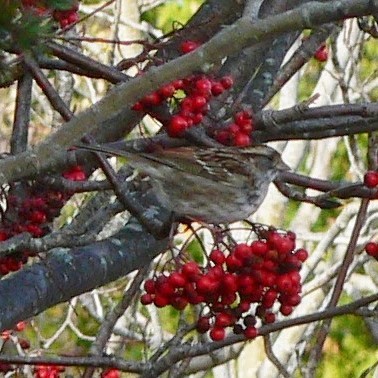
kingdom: Animalia
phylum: Chordata
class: Aves
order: Passeriformes
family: Passerellidae
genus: Zonotrichia
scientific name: Zonotrichia albicollis
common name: White-throated sparrow
